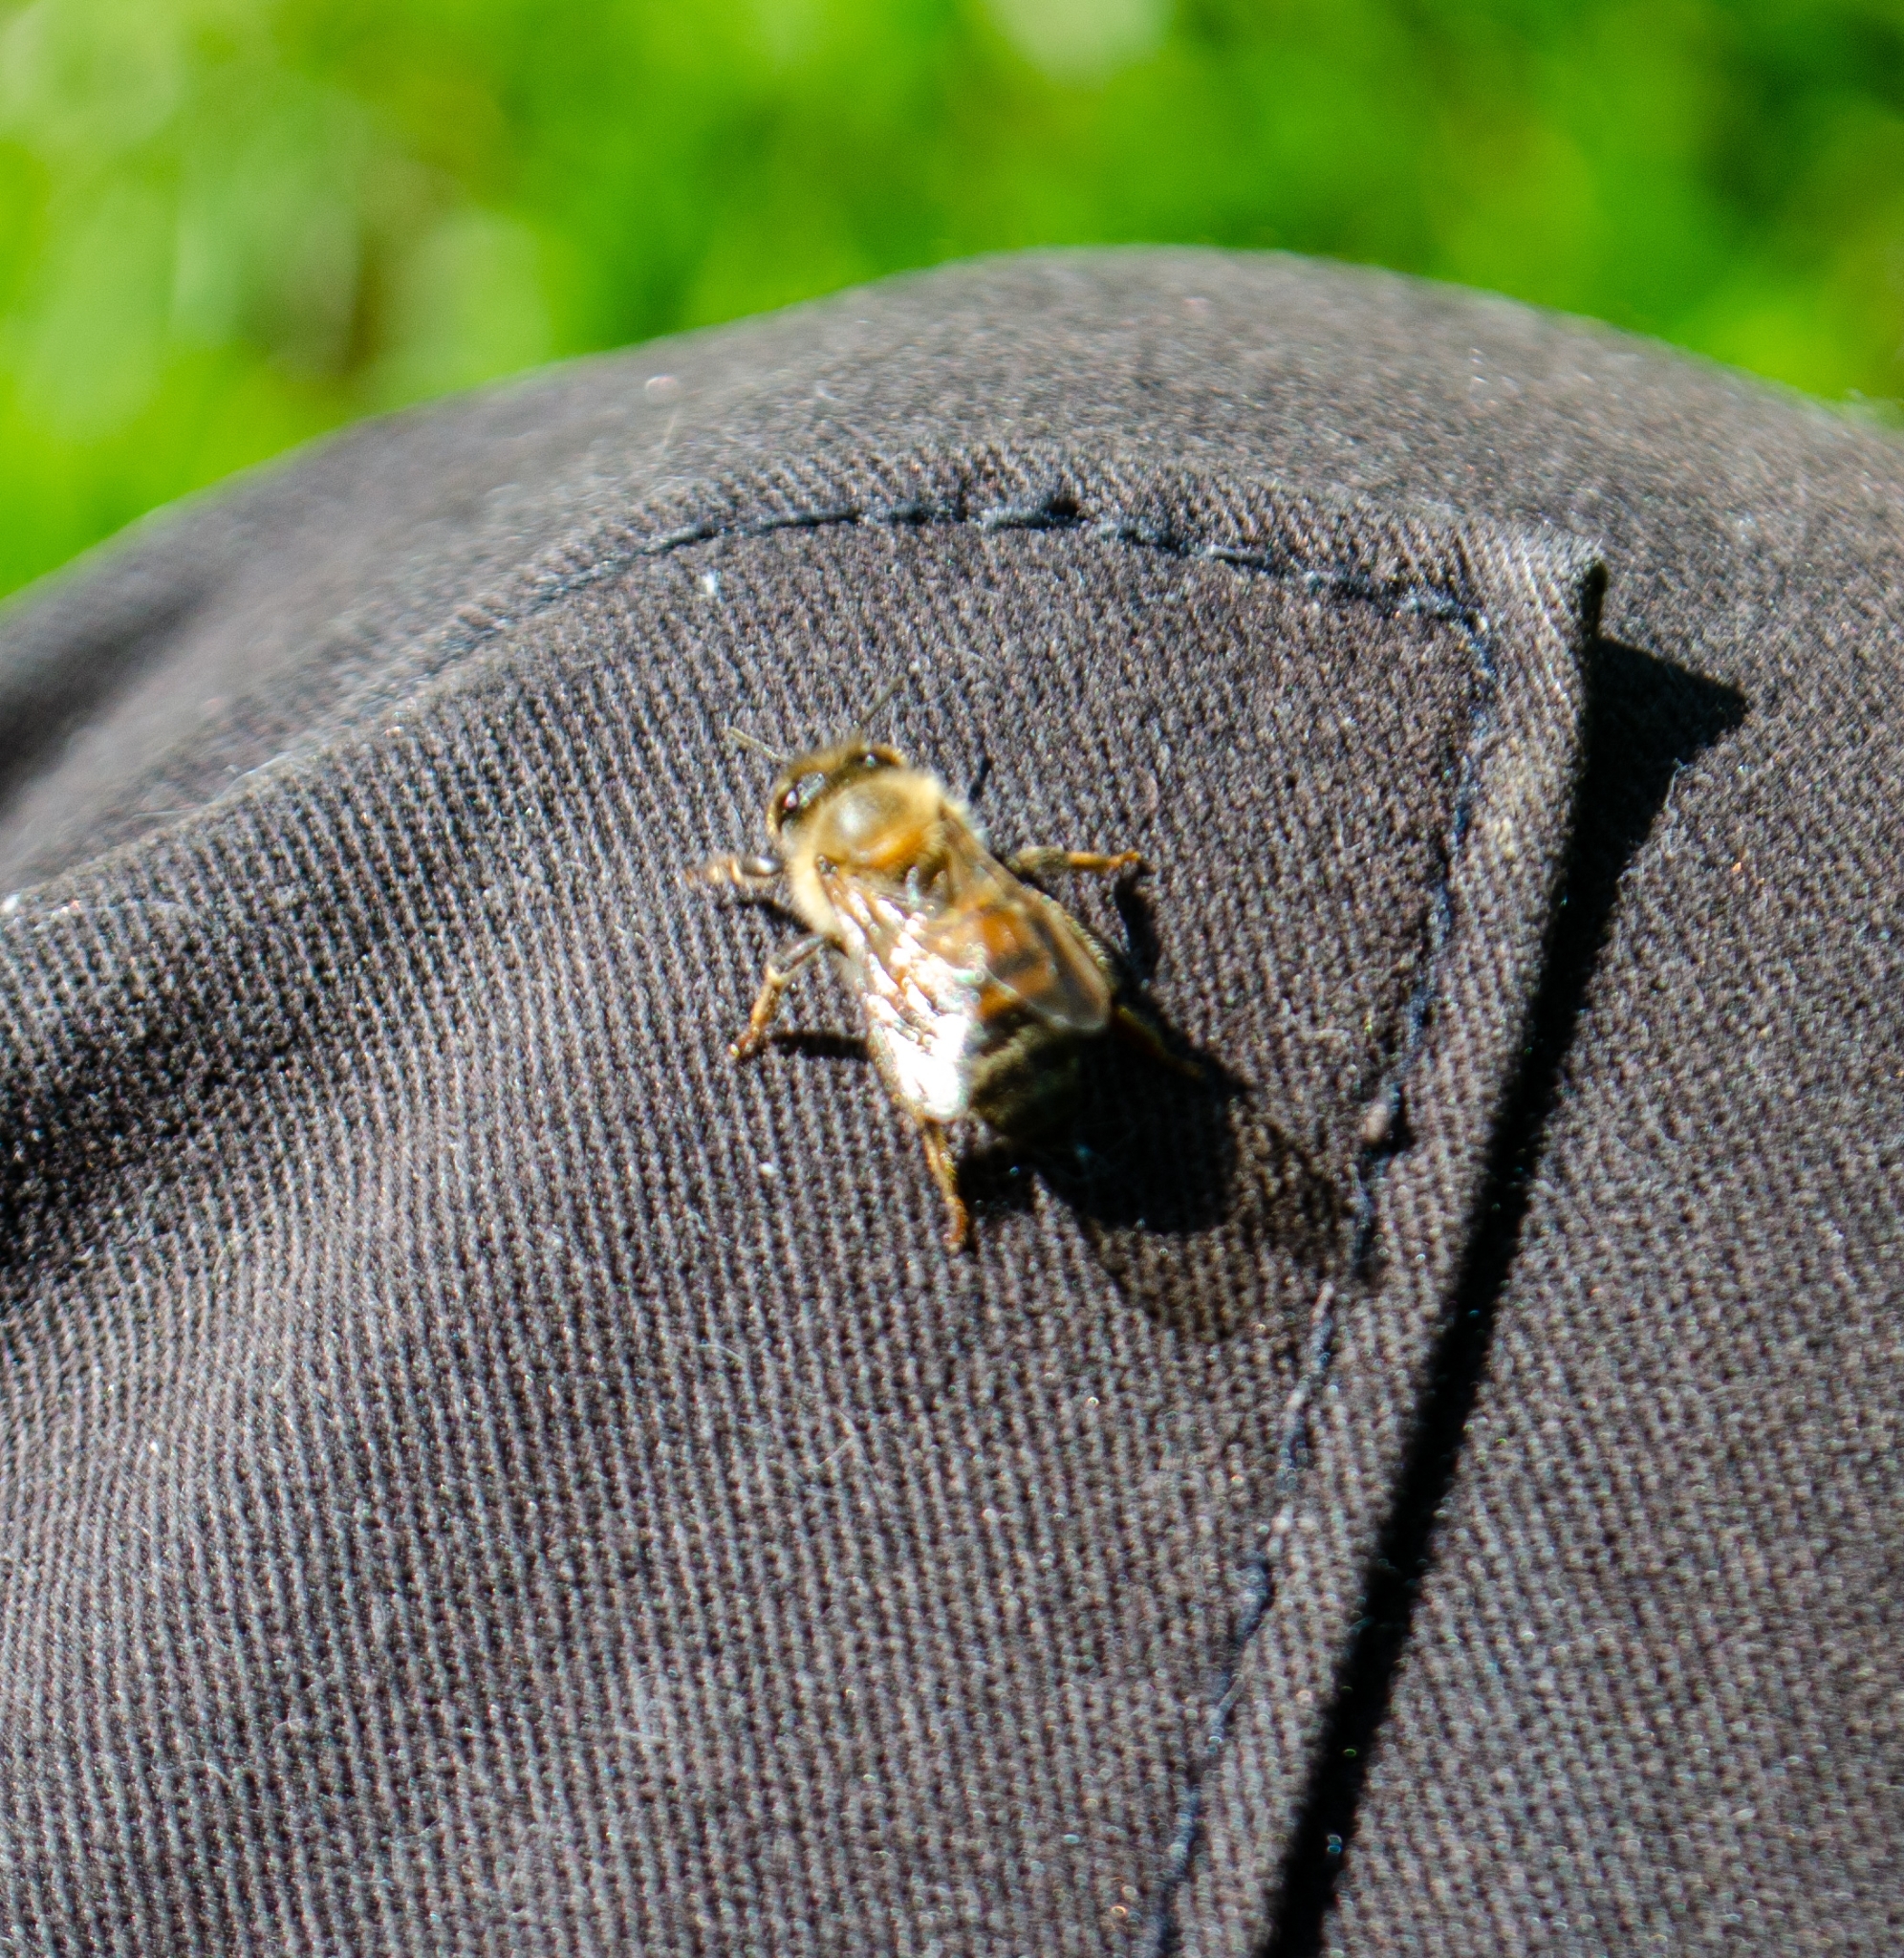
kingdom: Animalia
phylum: Arthropoda
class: Insecta
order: Hymenoptera
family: Apidae
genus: Apis
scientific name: Apis mellifera
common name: Honey bee
